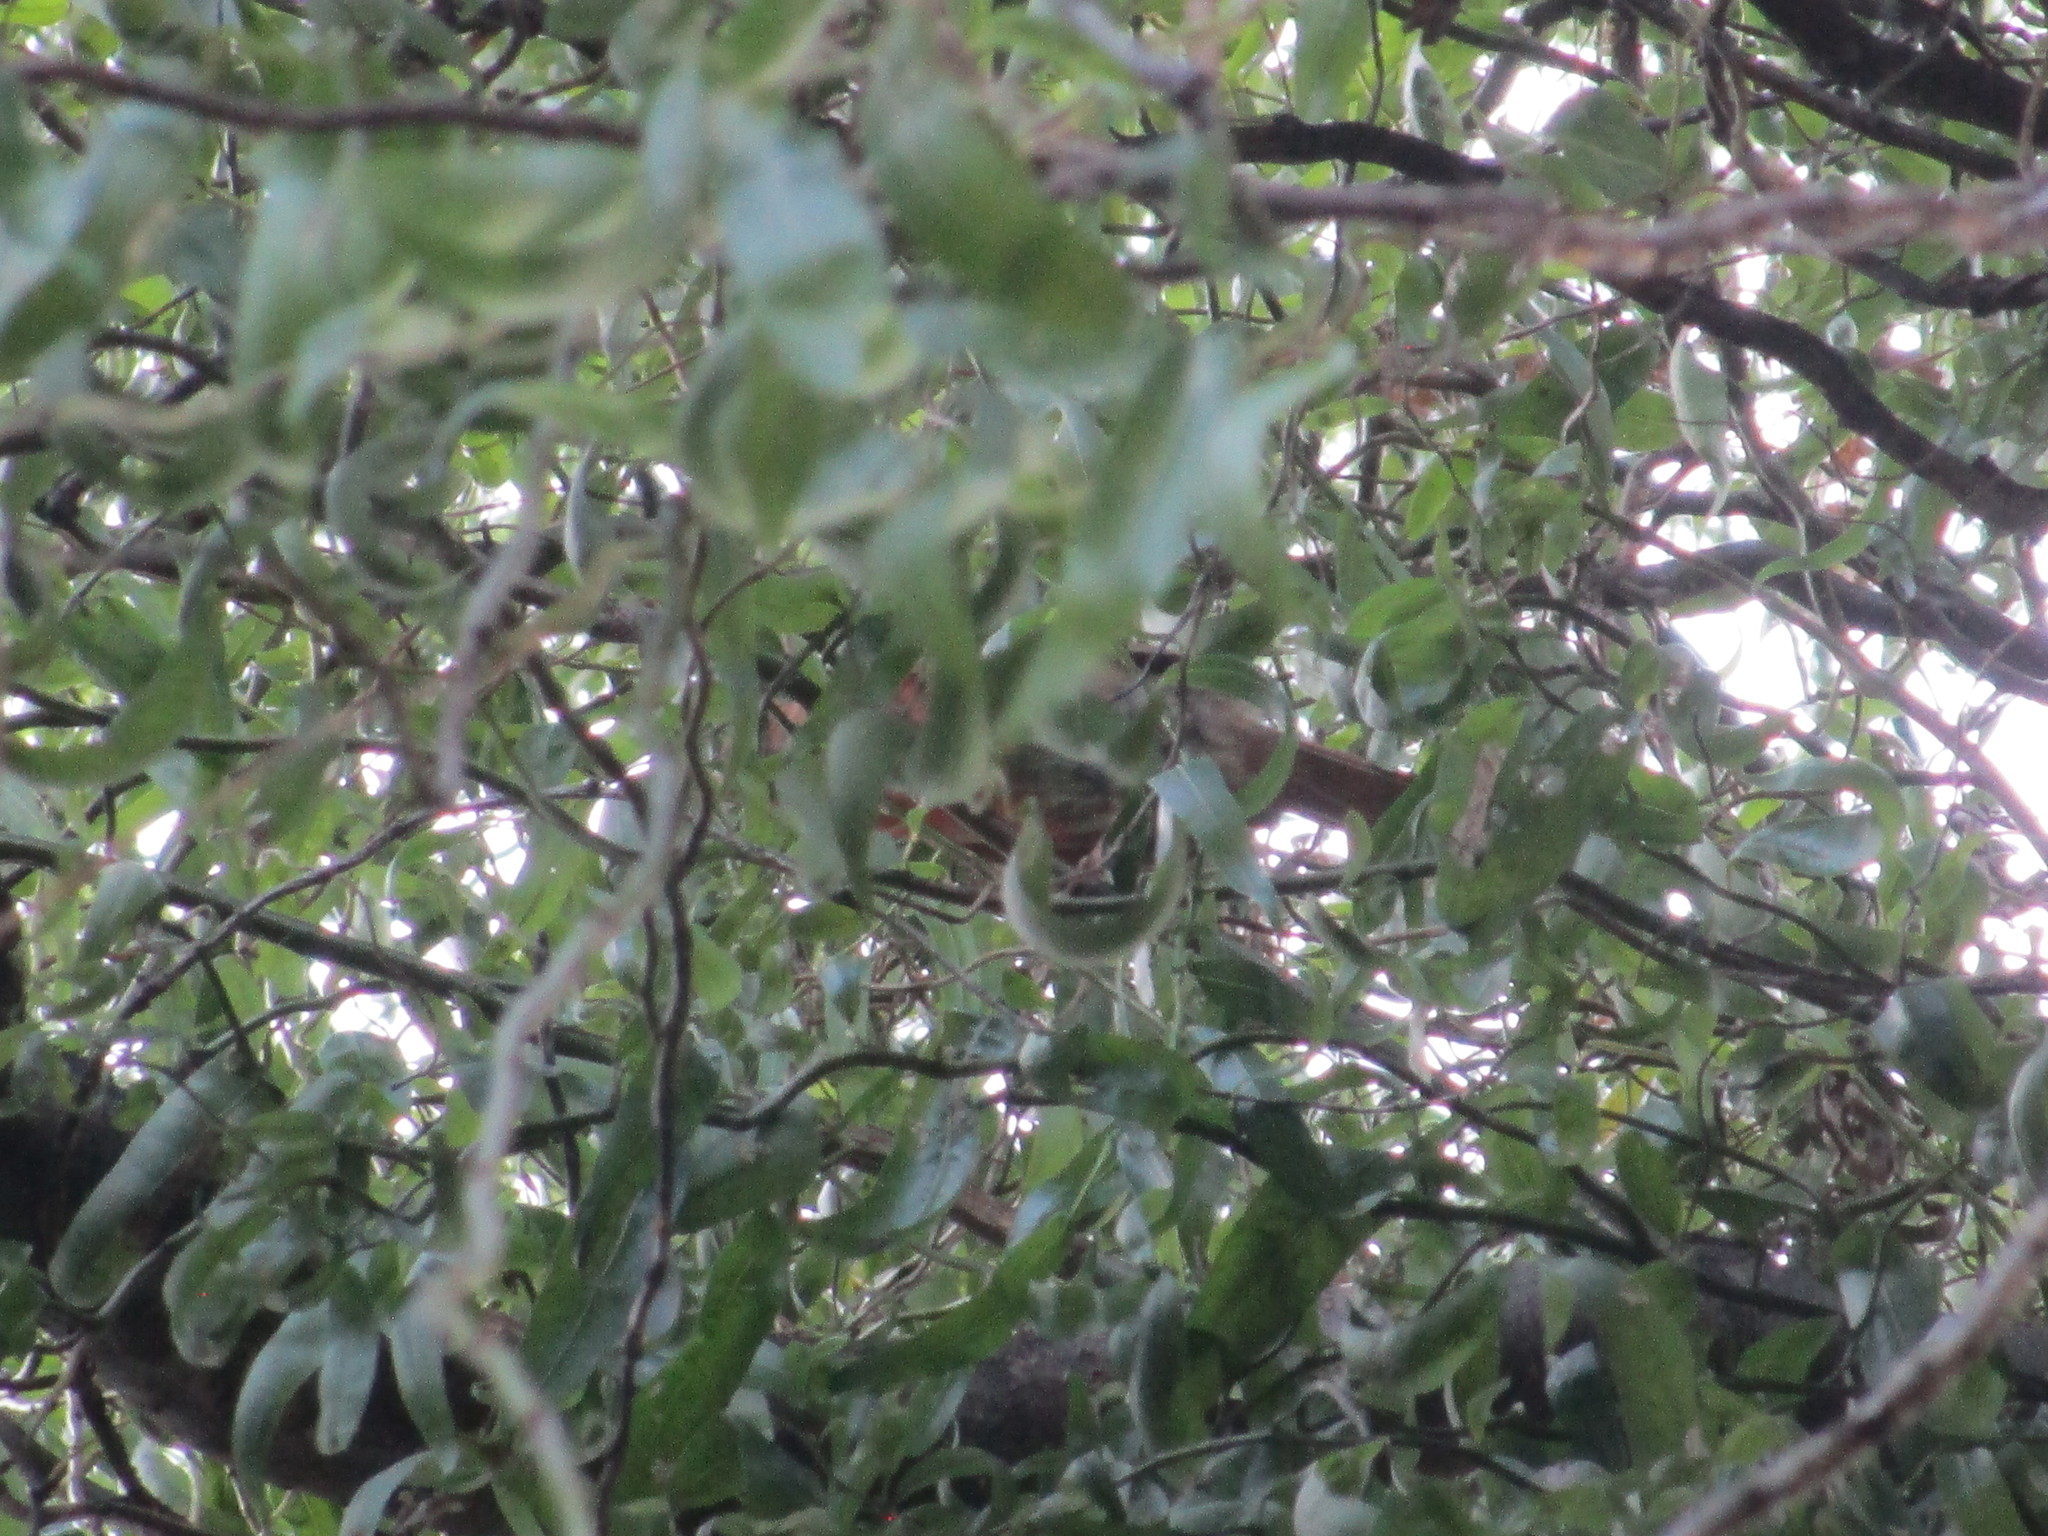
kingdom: Animalia
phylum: Chordata
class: Aves
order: Passeriformes
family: Cardinalidae
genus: Cardinalis
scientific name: Cardinalis cardinalis
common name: Northern cardinal
